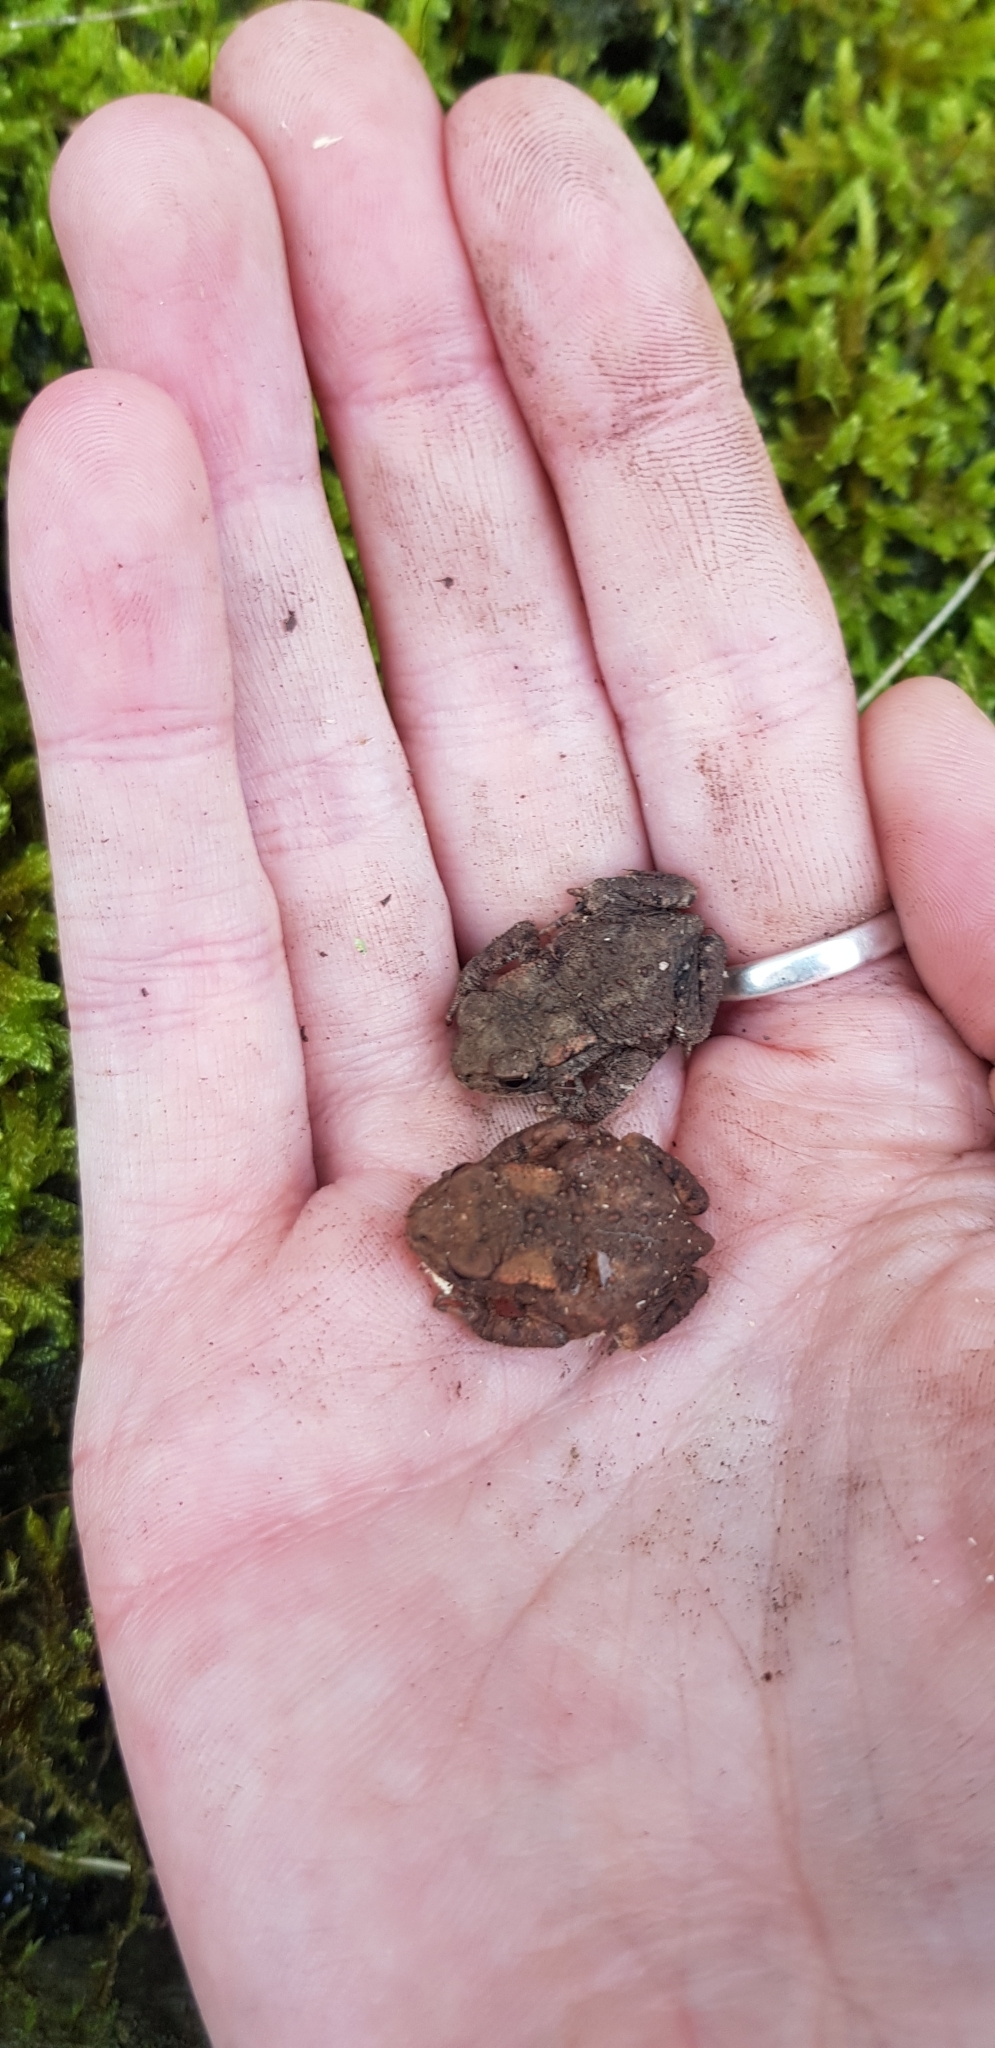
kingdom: Animalia
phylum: Chordata
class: Amphibia
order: Anura
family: Bufonidae
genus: Bufo
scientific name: Bufo bufo
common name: Common toad
